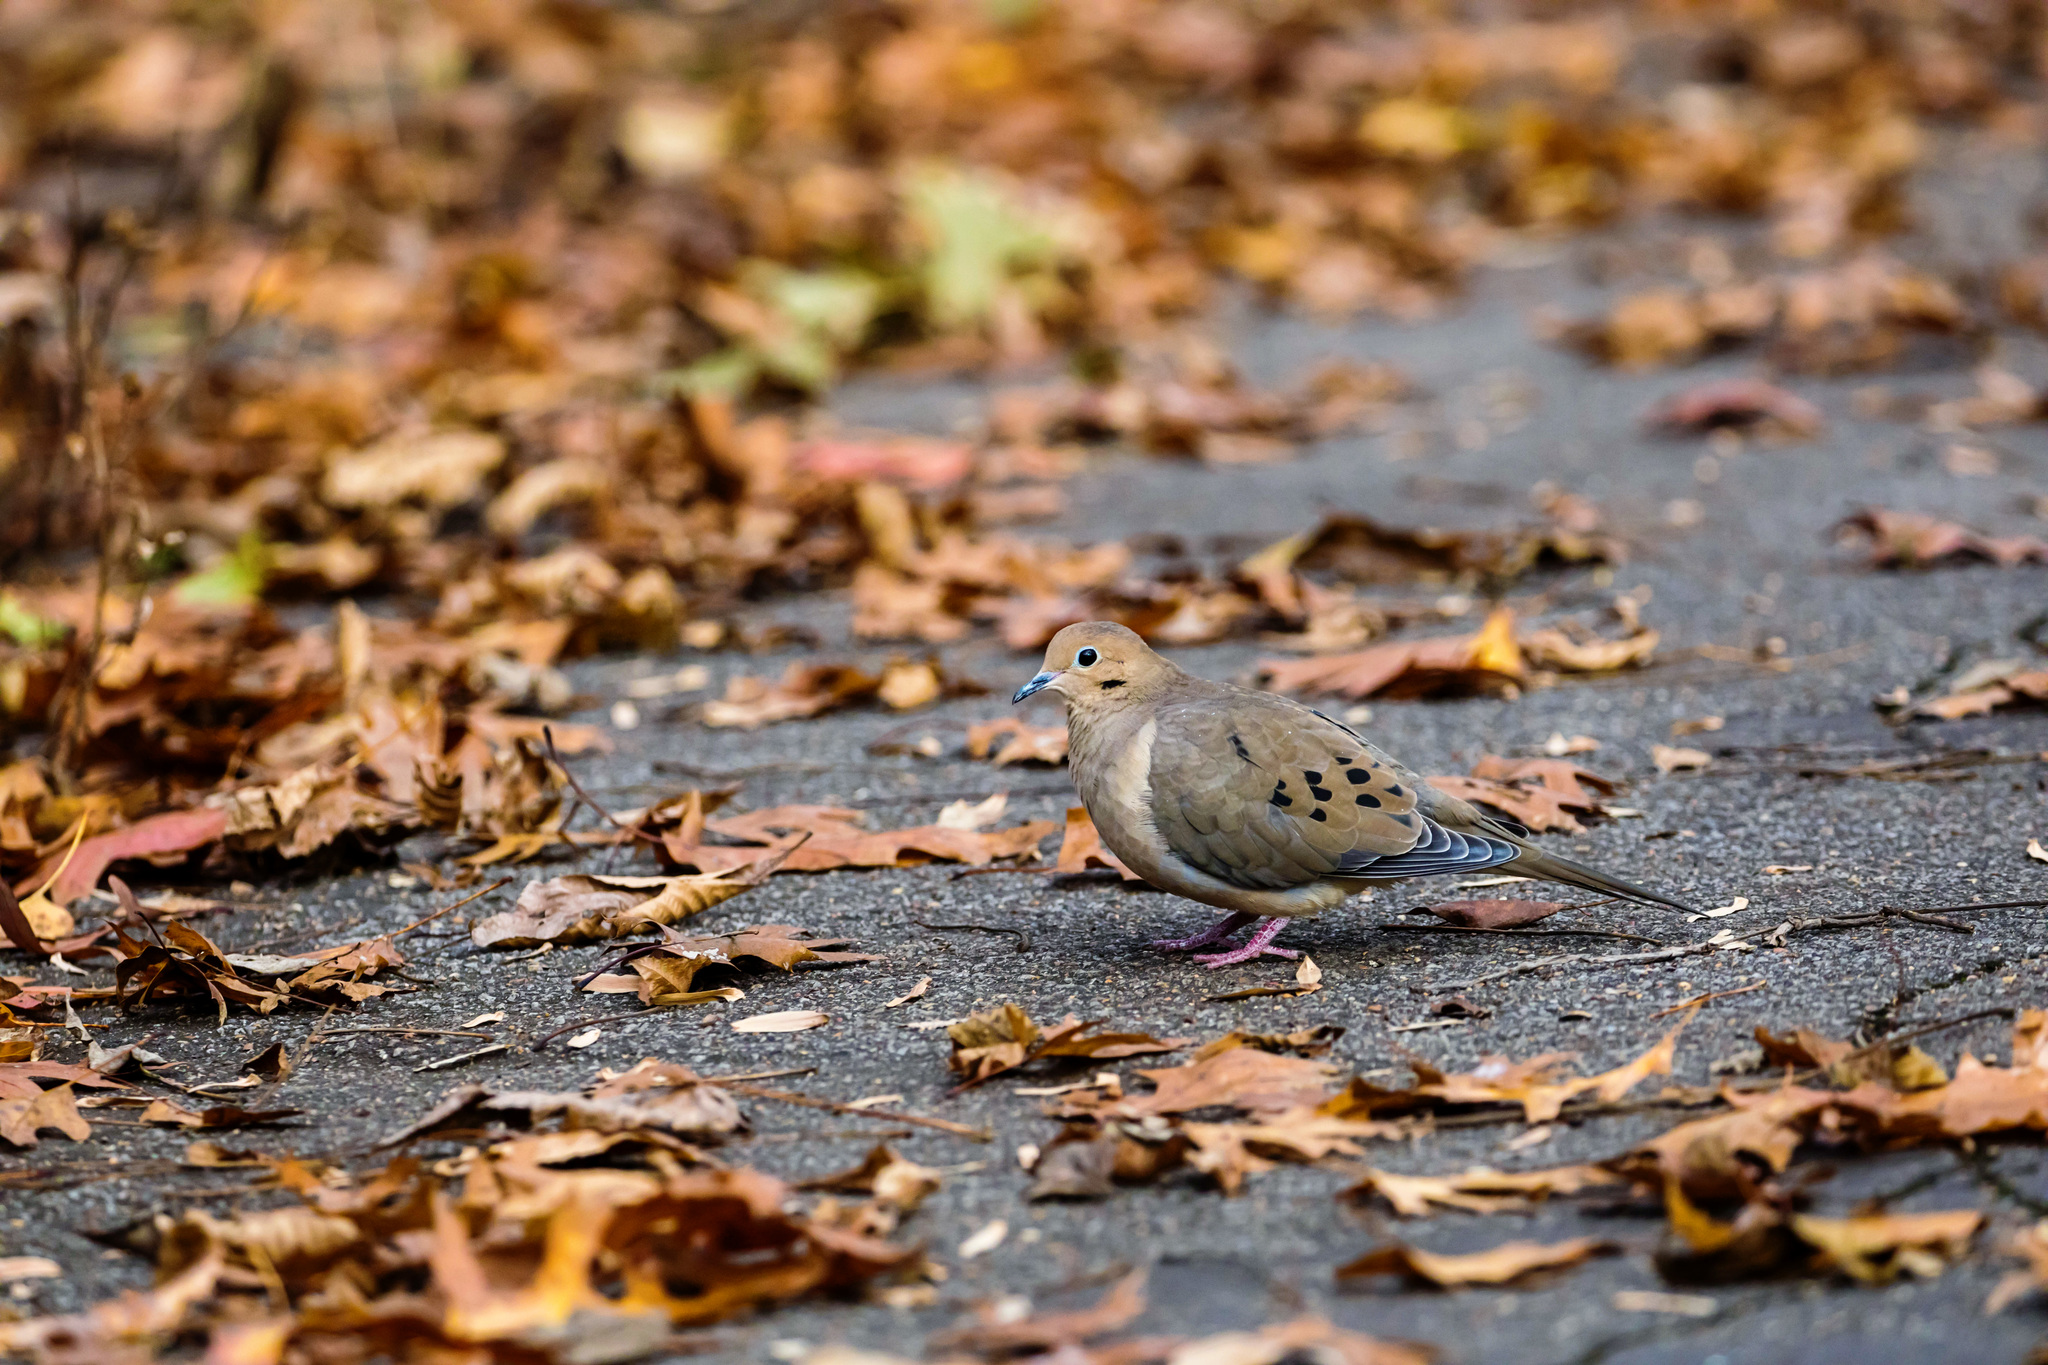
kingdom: Animalia
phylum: Chordata
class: Aves
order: Columbiformes
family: Columbidae
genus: Zenaida
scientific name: Zenaida macroura
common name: Mourning dove
